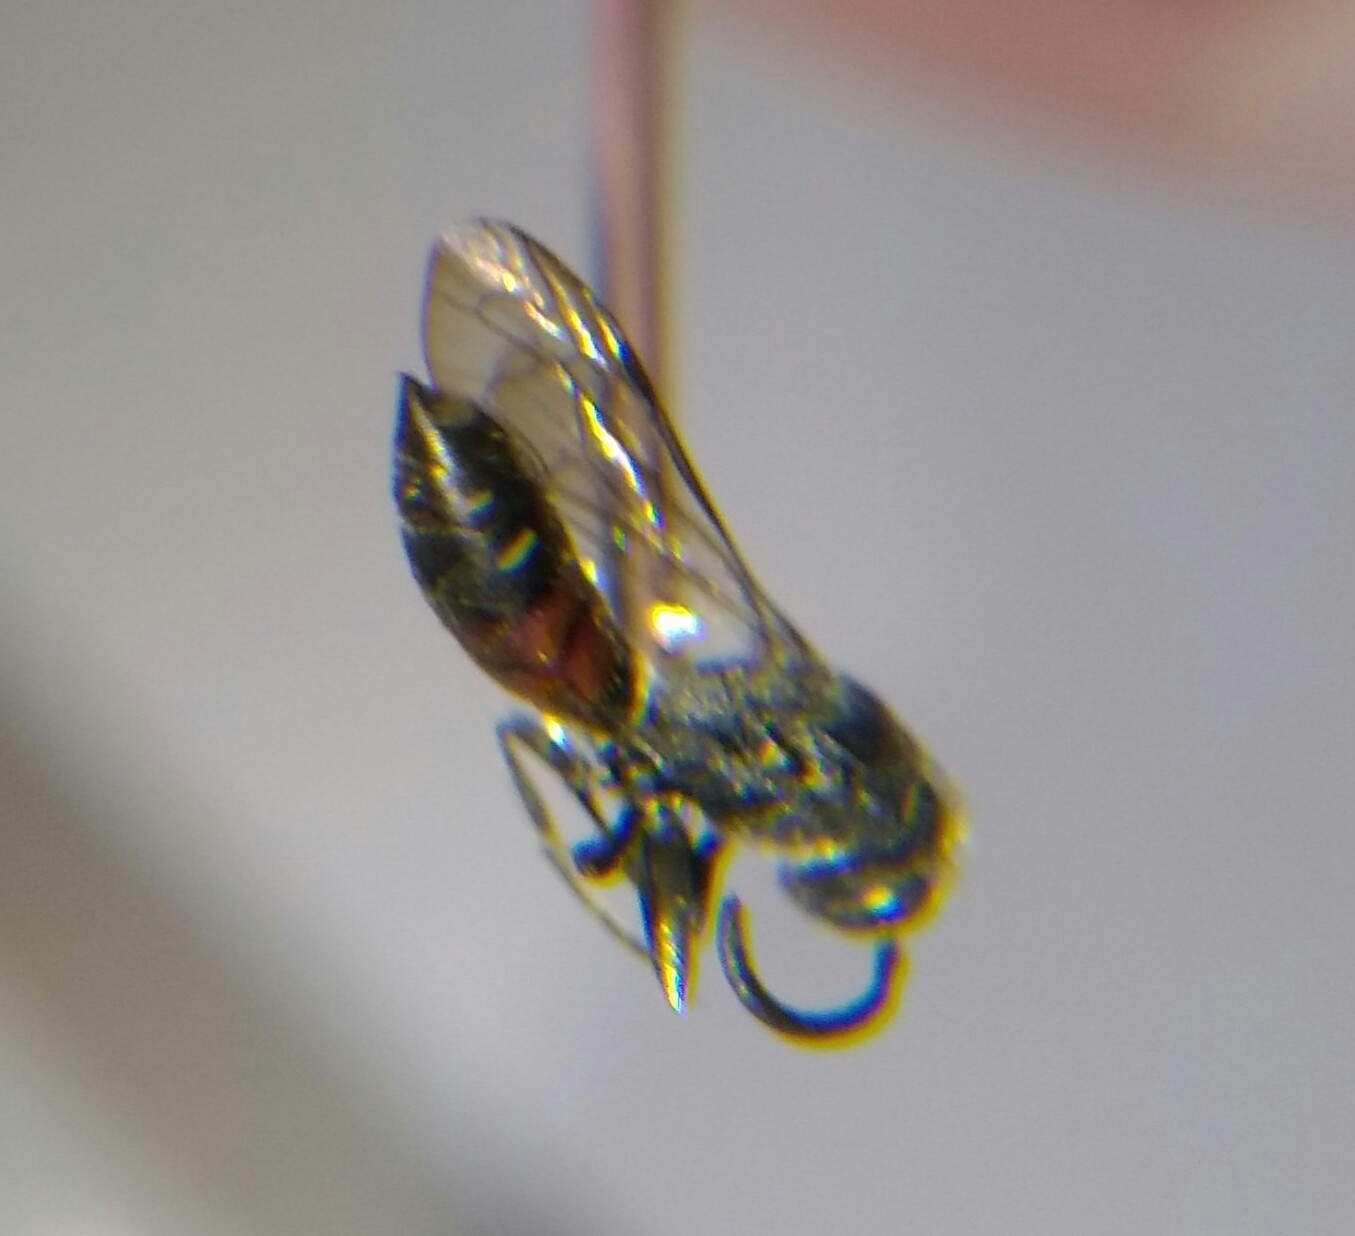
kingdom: Animalia
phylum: Arthropoda
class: Insecta
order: Hymenoptera
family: Sapygidae
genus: Sapyga
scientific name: Sapyga quinquepunctata
